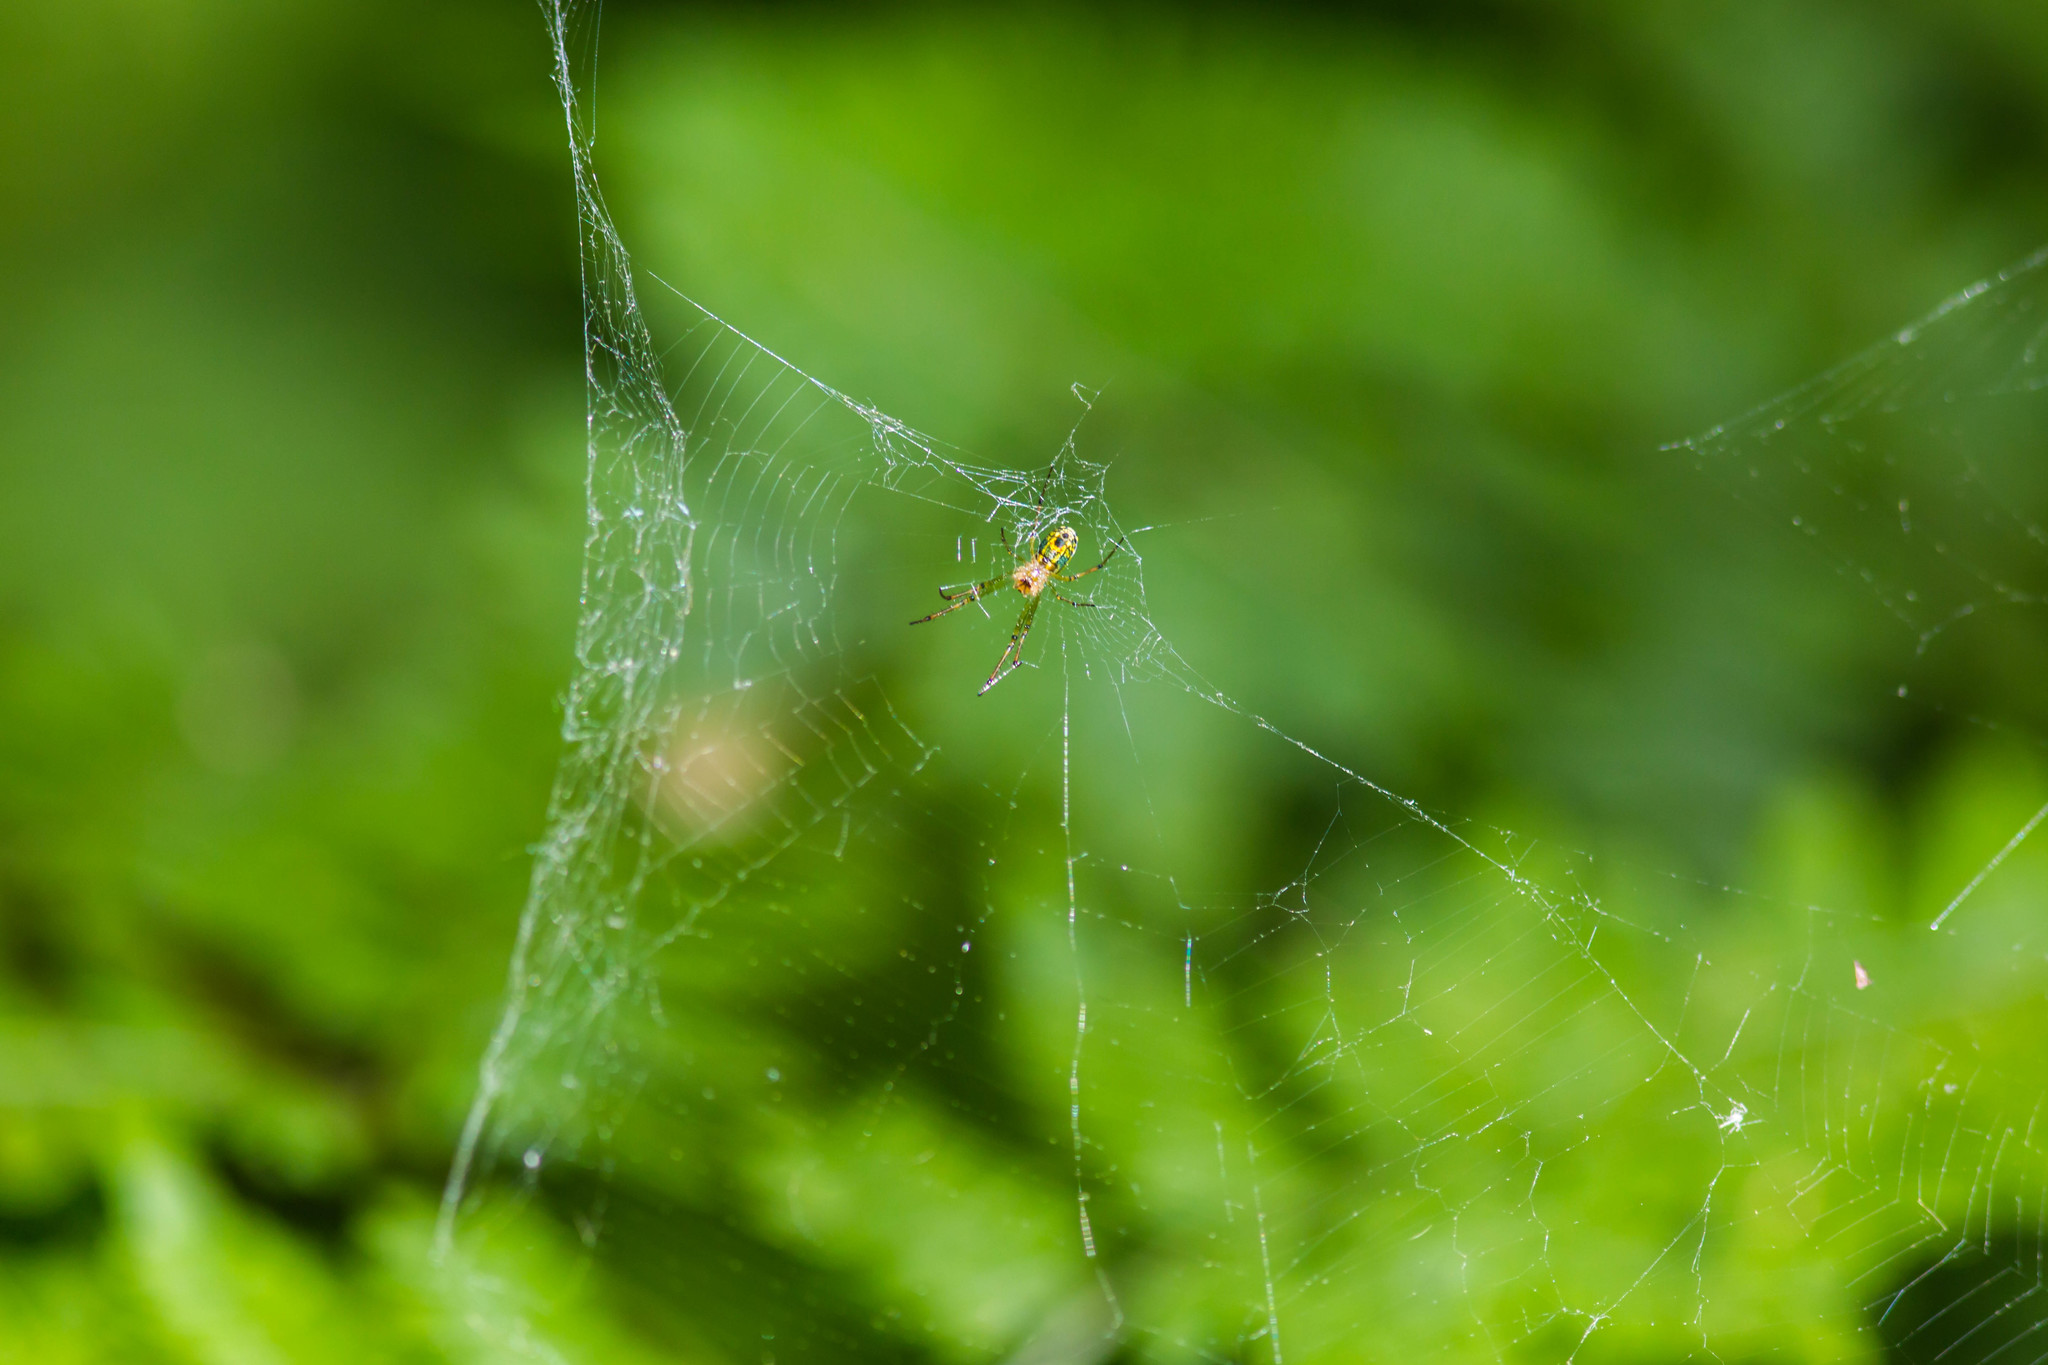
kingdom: Animalia
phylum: Arthropoda
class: Arachnida
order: Araneae
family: Tetragnathidae
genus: Leucauge
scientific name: Leucauge venusta
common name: Longjawed orb weavers
